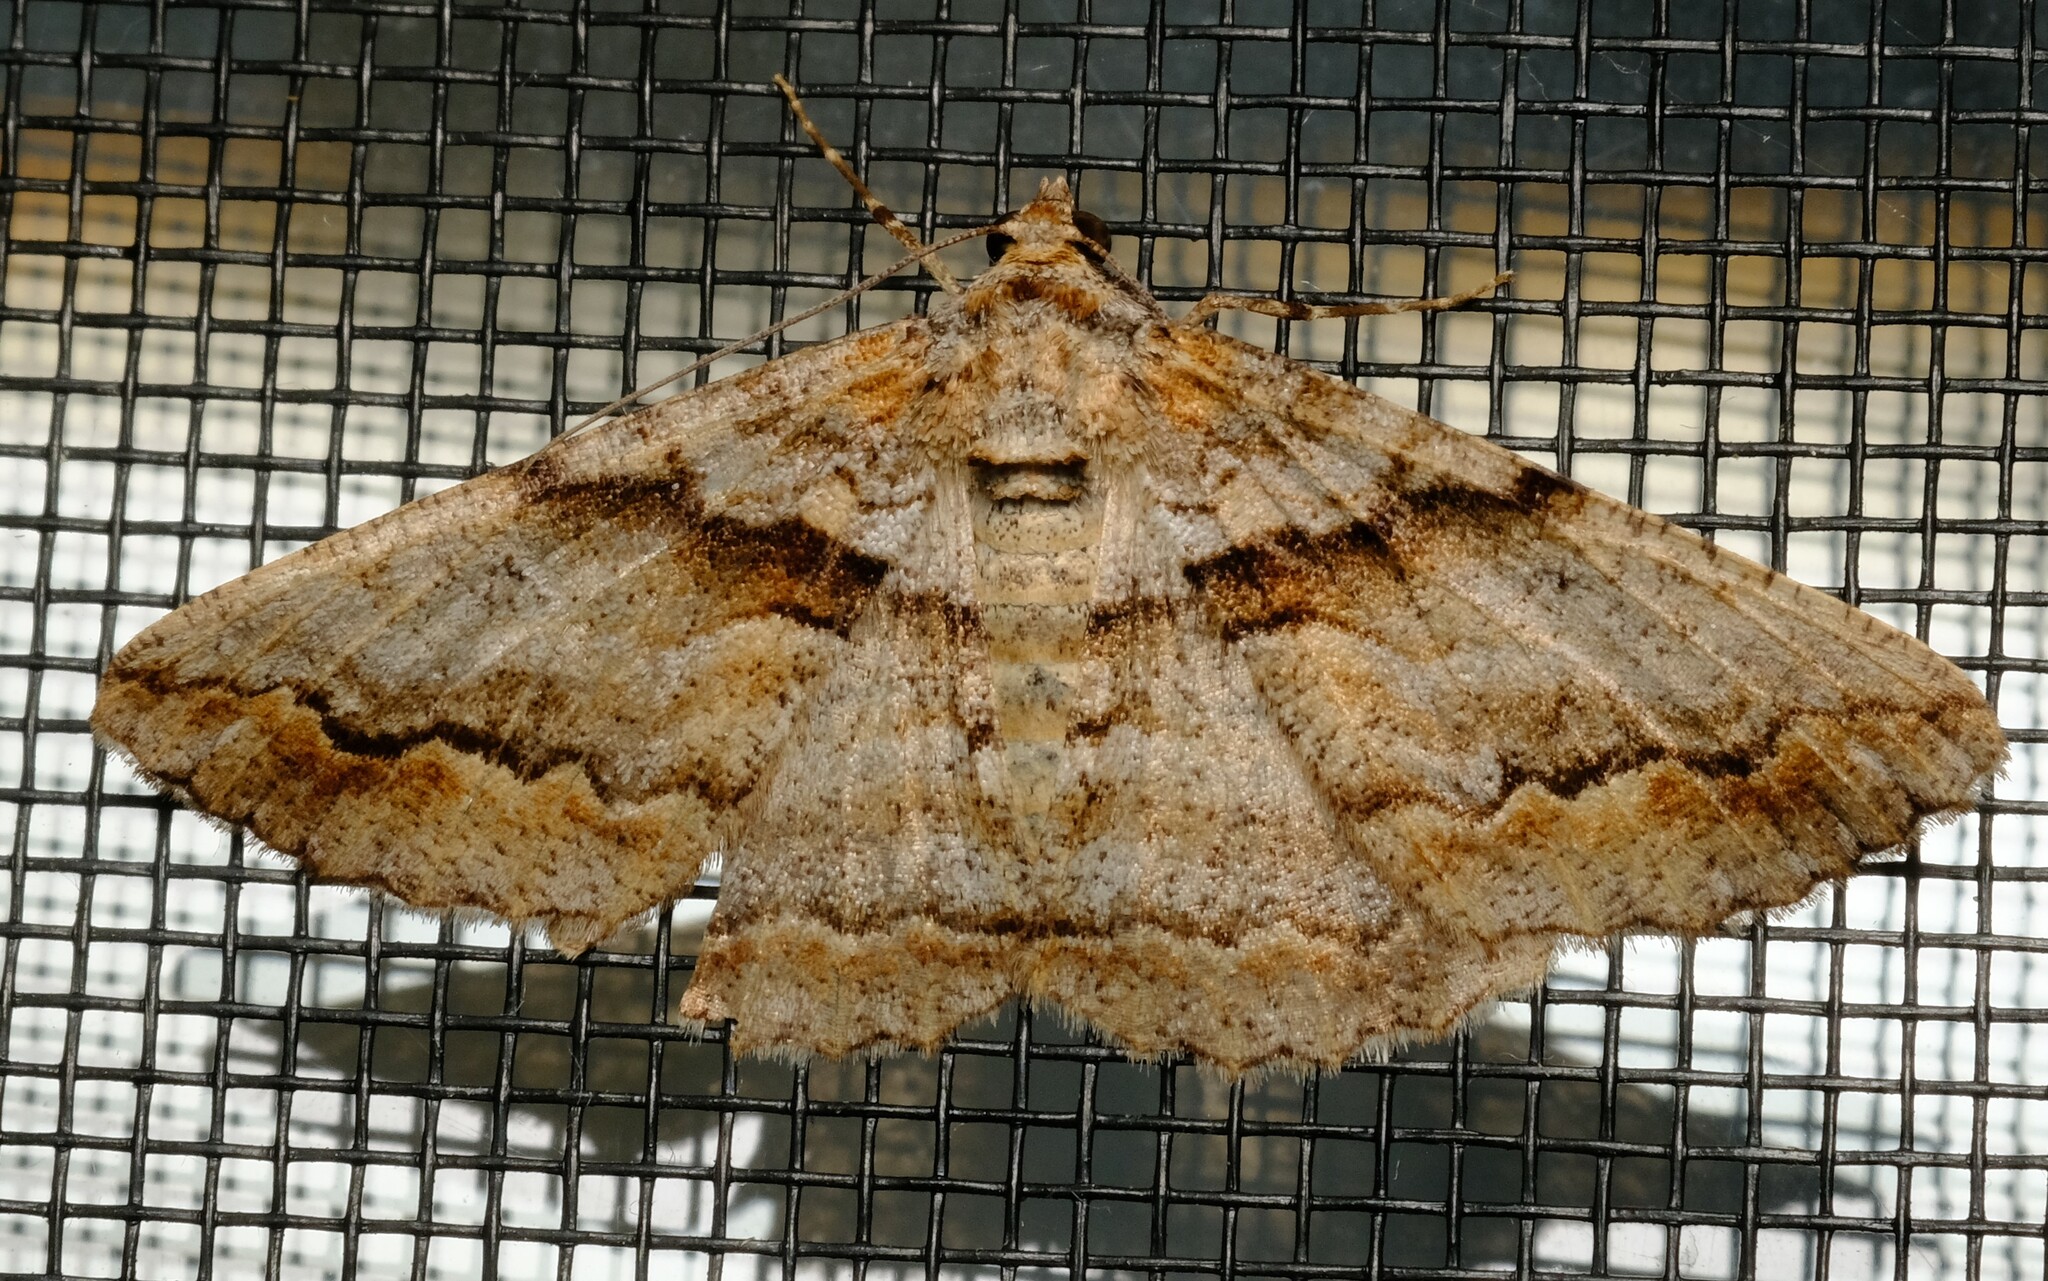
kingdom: Animalia
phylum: Arthropoda
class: Insecta
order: Lepidoptera
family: Geometridae
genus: Gastrinodes
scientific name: Gastrinodes bitaeniaria
